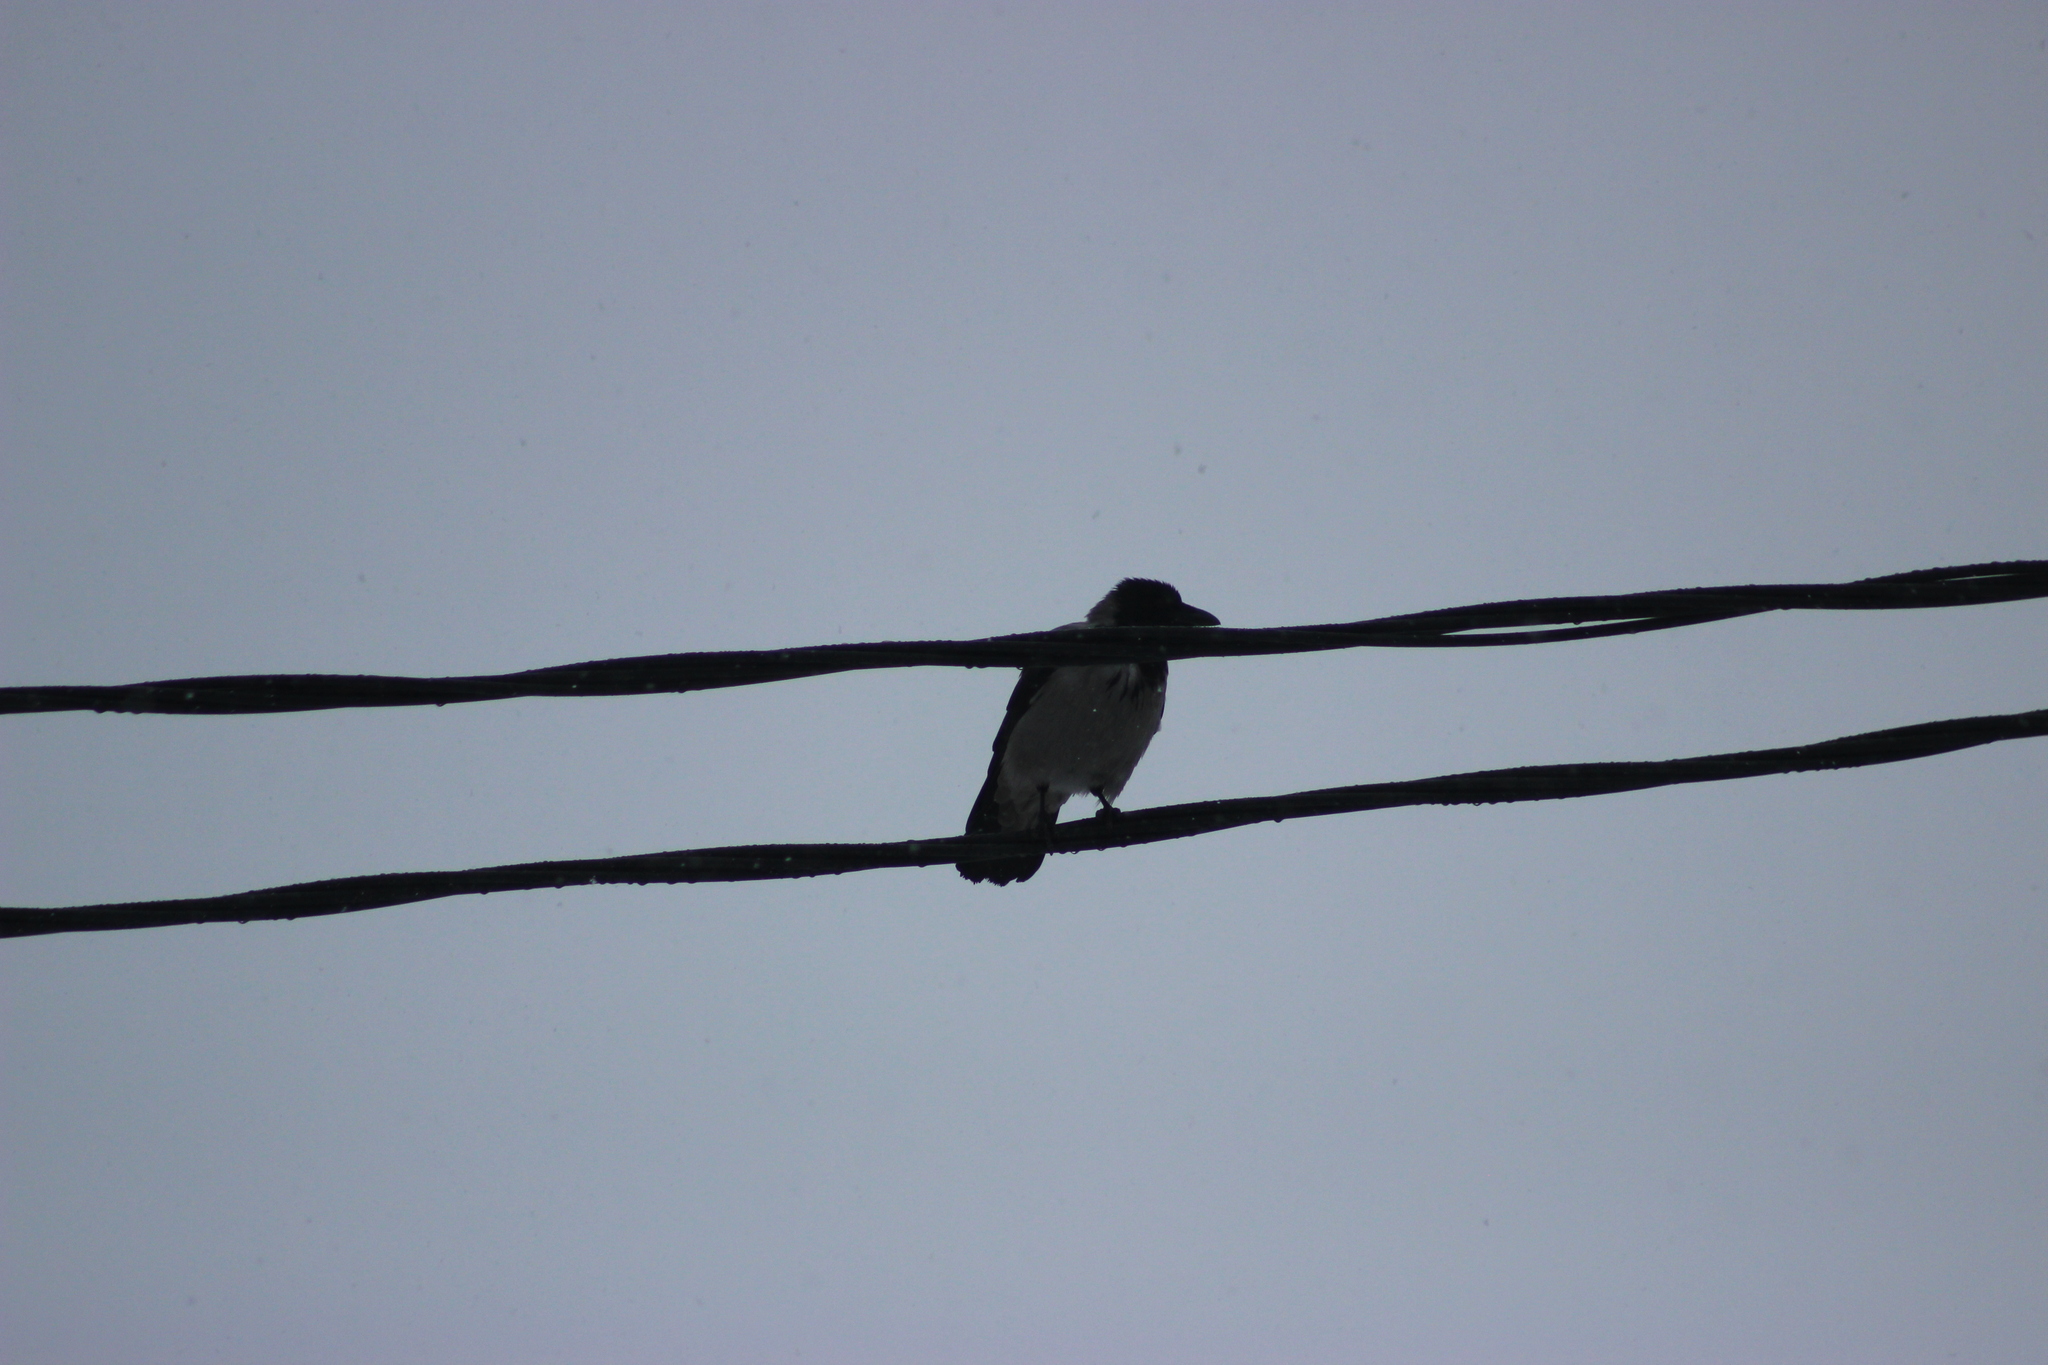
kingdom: Animalia
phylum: Chordata
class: Aves
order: Passeriformes
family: Corvidae
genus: Corvus
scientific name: Corvus cornix
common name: Hooded crow
